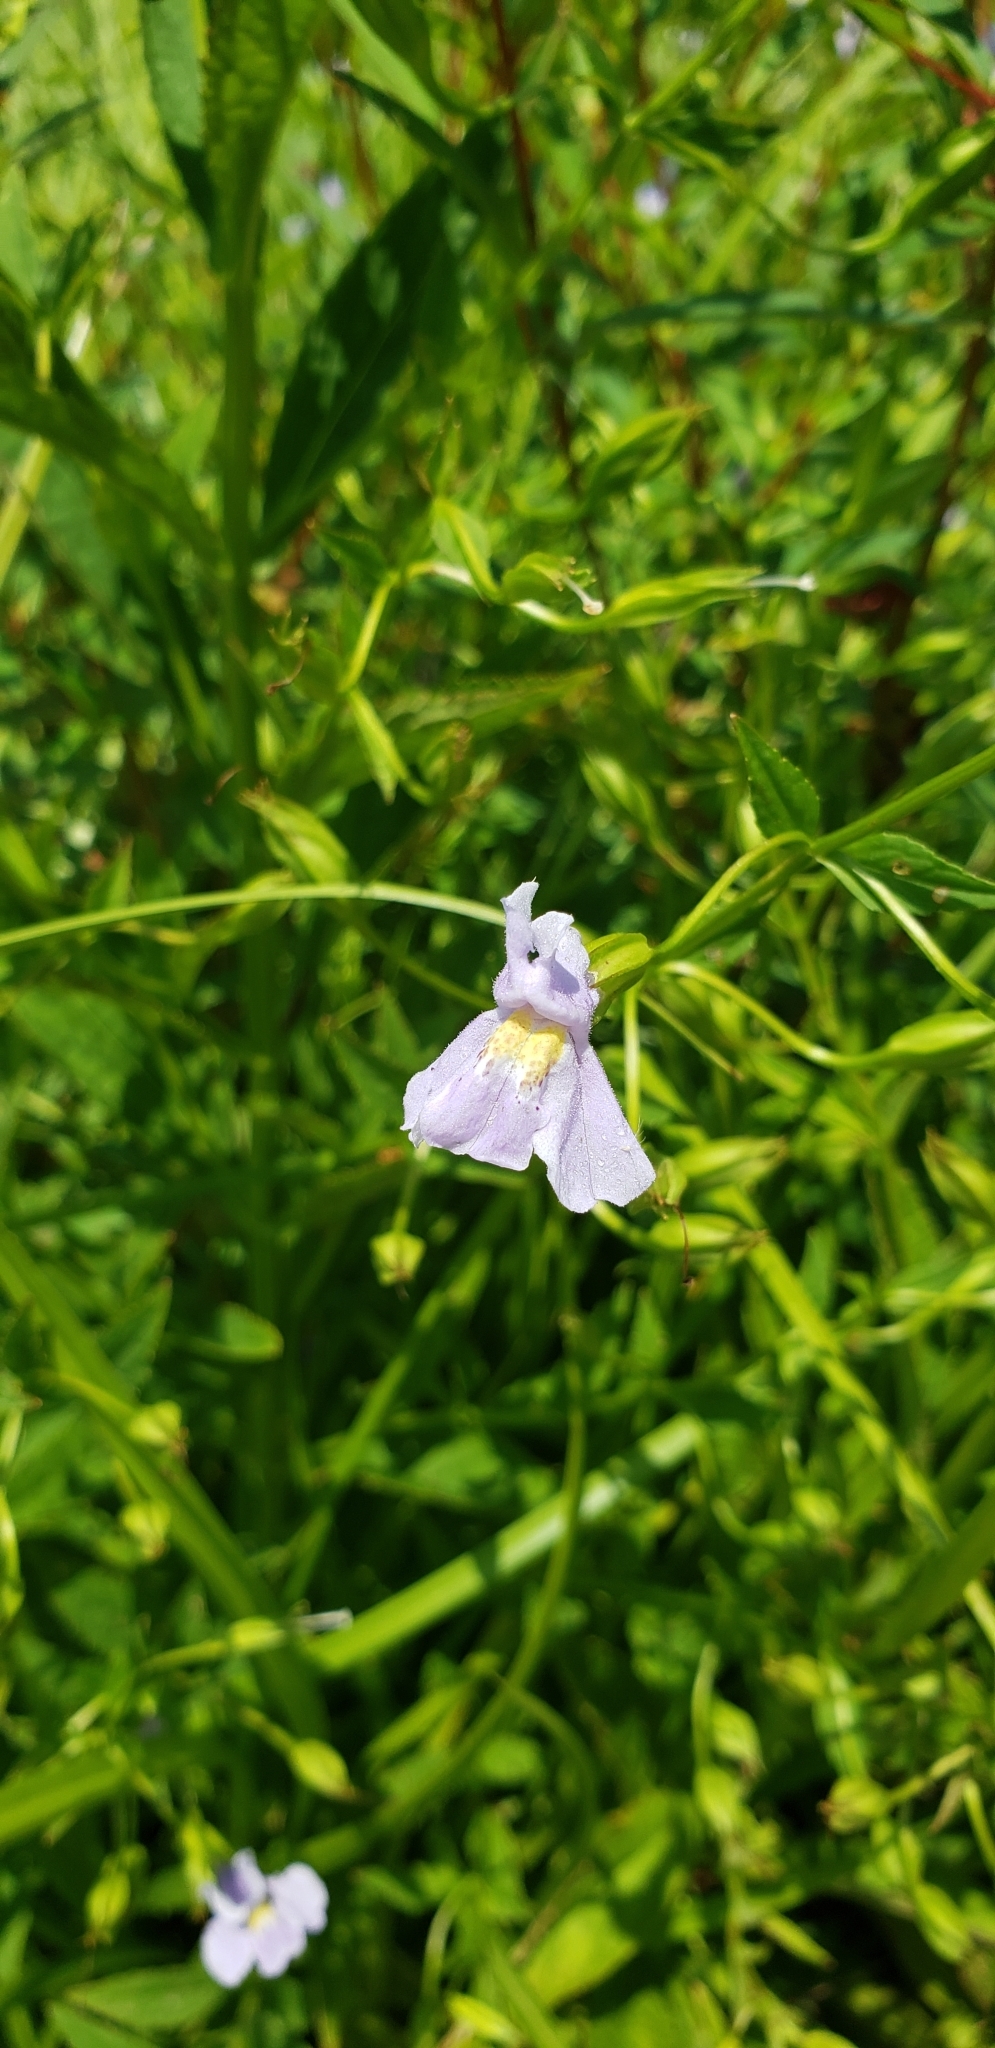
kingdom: Plantae
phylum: Tracheophyta
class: Magnoliopsida
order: Lamiales
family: Phrymaceae
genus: Mimulus
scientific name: Mimulus ringens
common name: Allegheny monkeyflower
